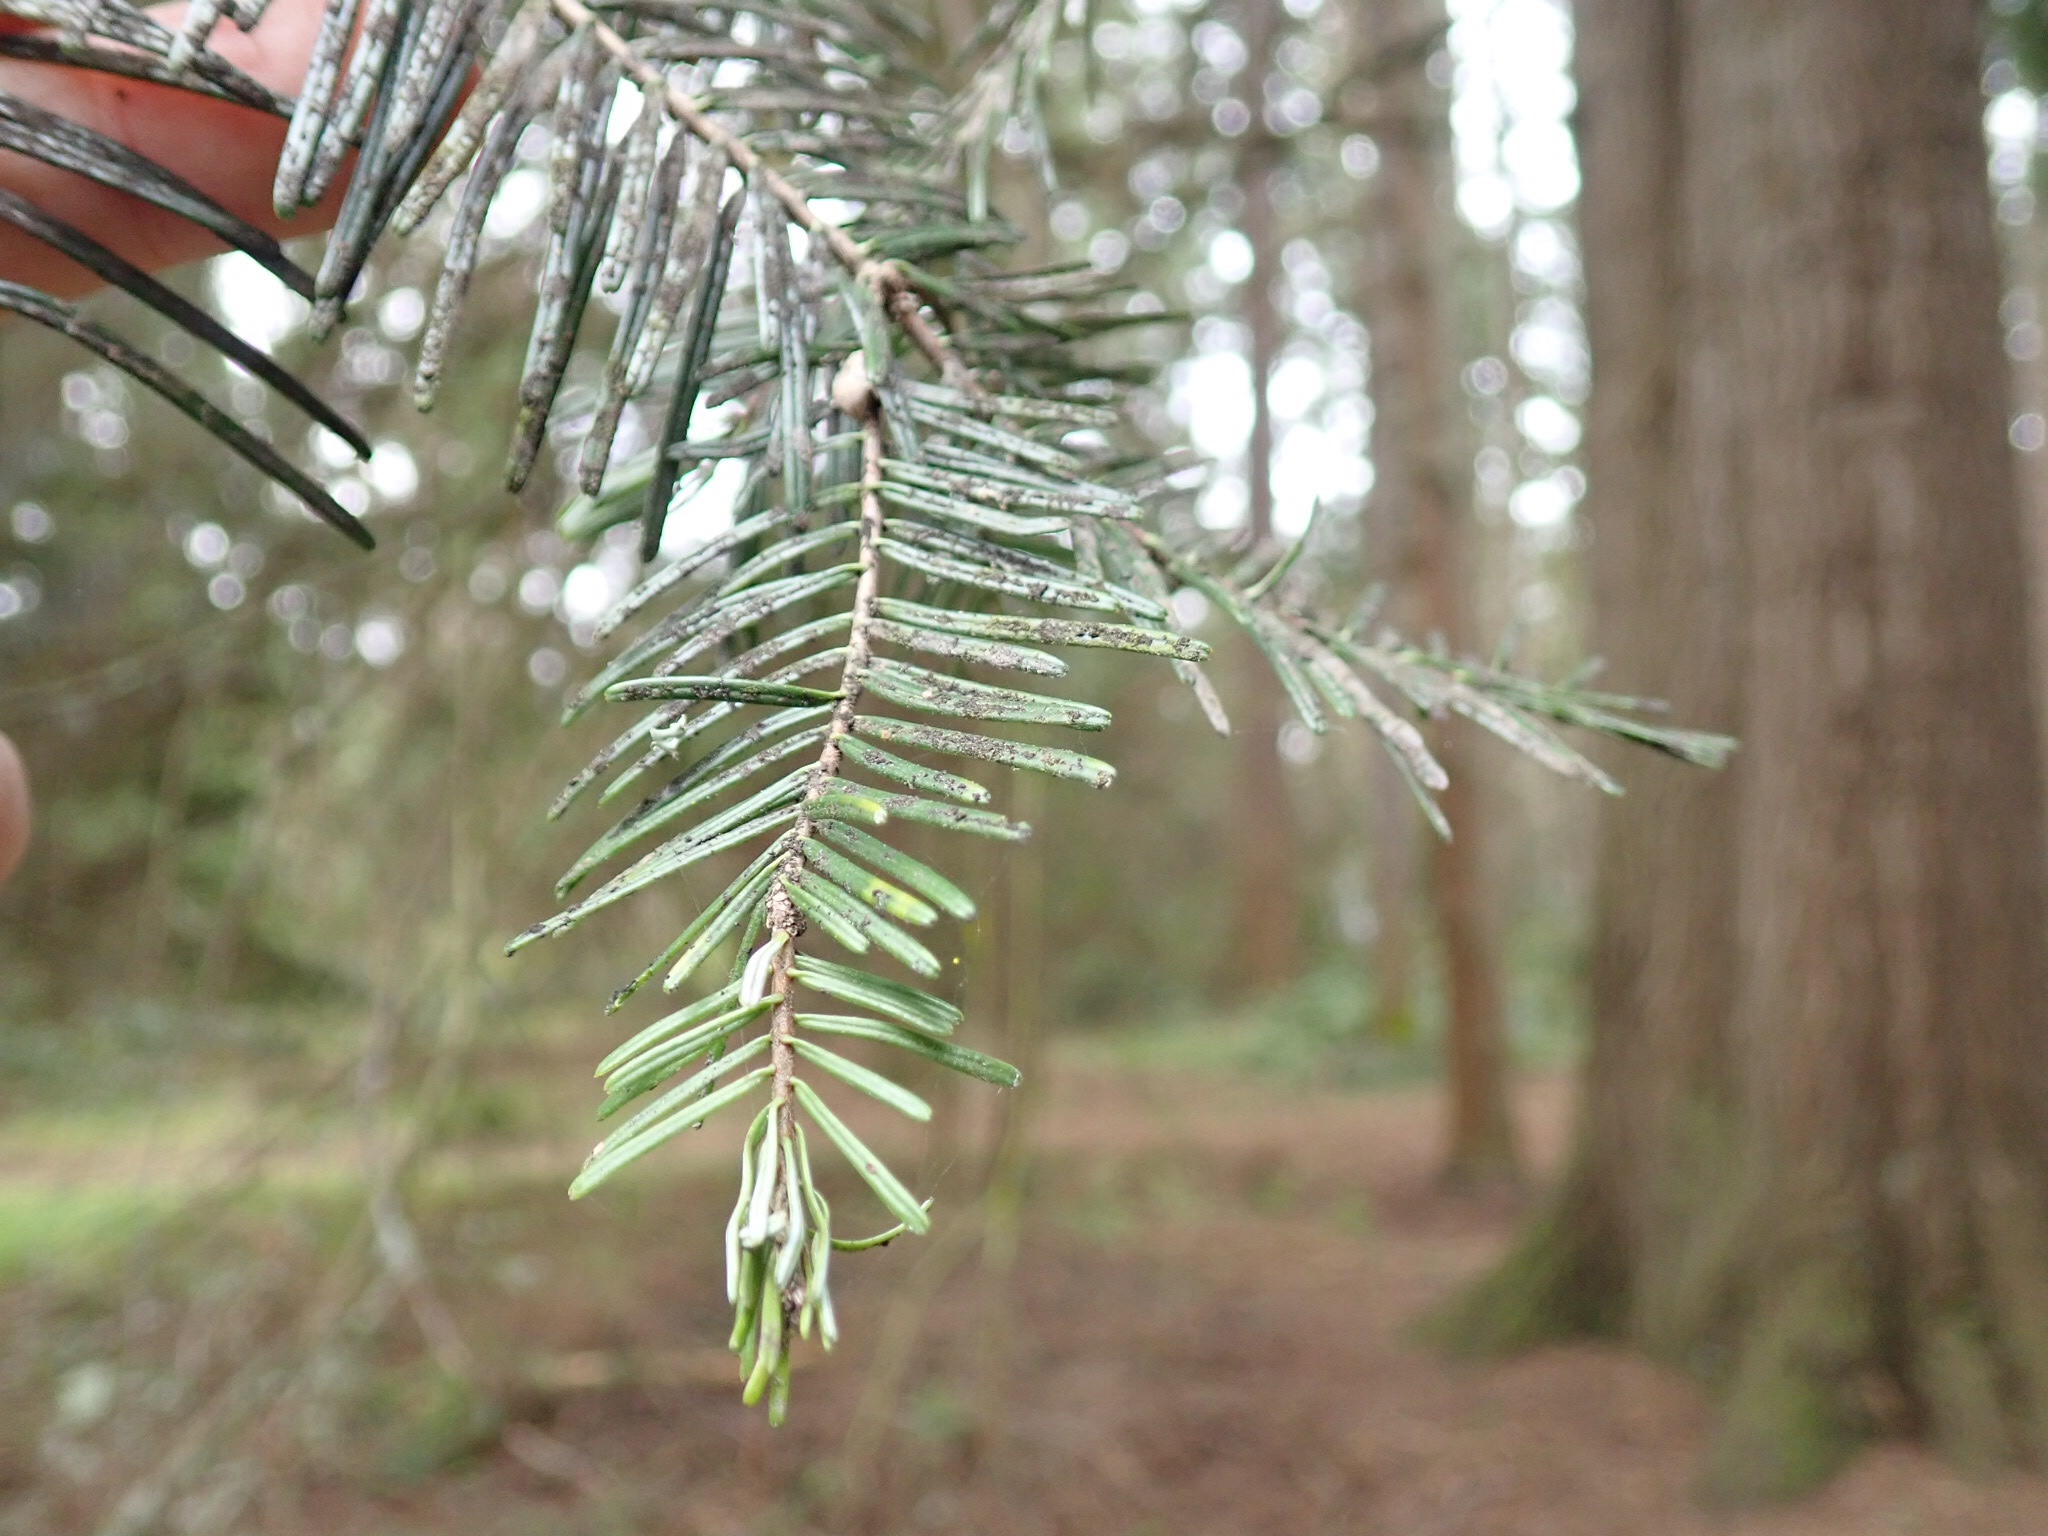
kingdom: Plantae
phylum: Tracheophyta
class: Pinopsida
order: Pinales
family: Pinaceae
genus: Abies
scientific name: Abies grandis
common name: Giant fir
